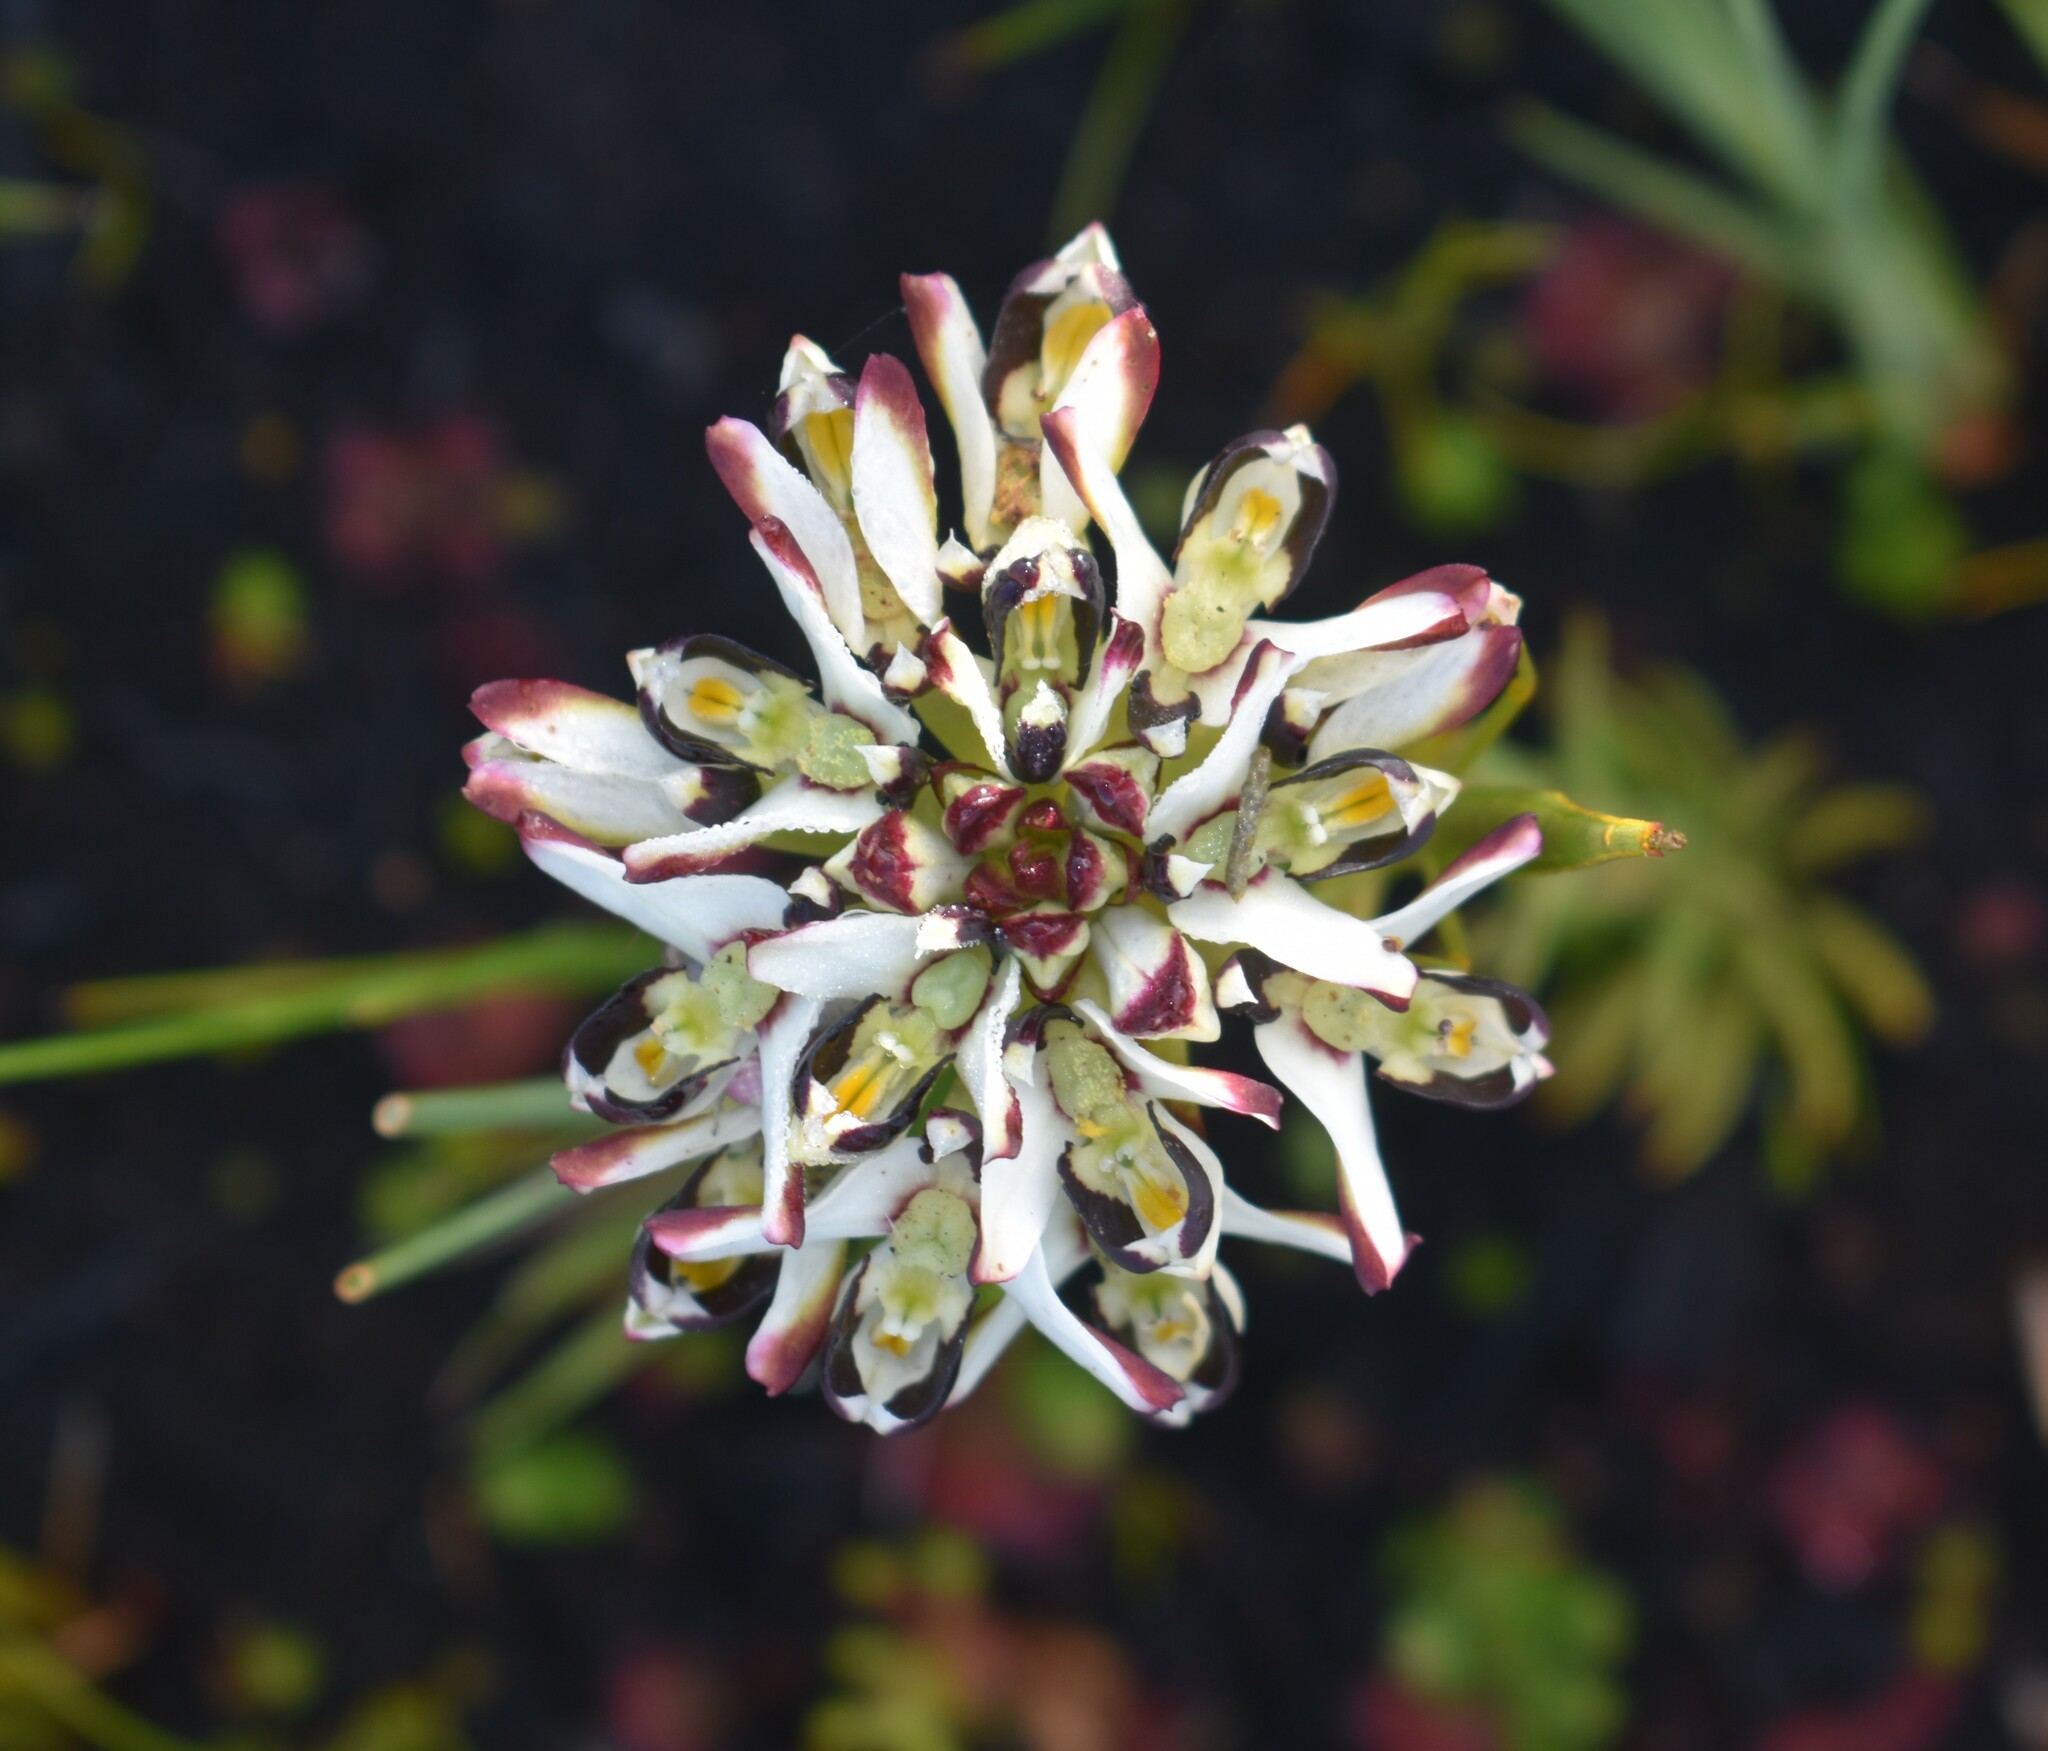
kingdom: Plantae
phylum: Tracheophyta
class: Liliopsida
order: Asparagales
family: Orchidaceae
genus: Disa
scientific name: Disa bivalvata
